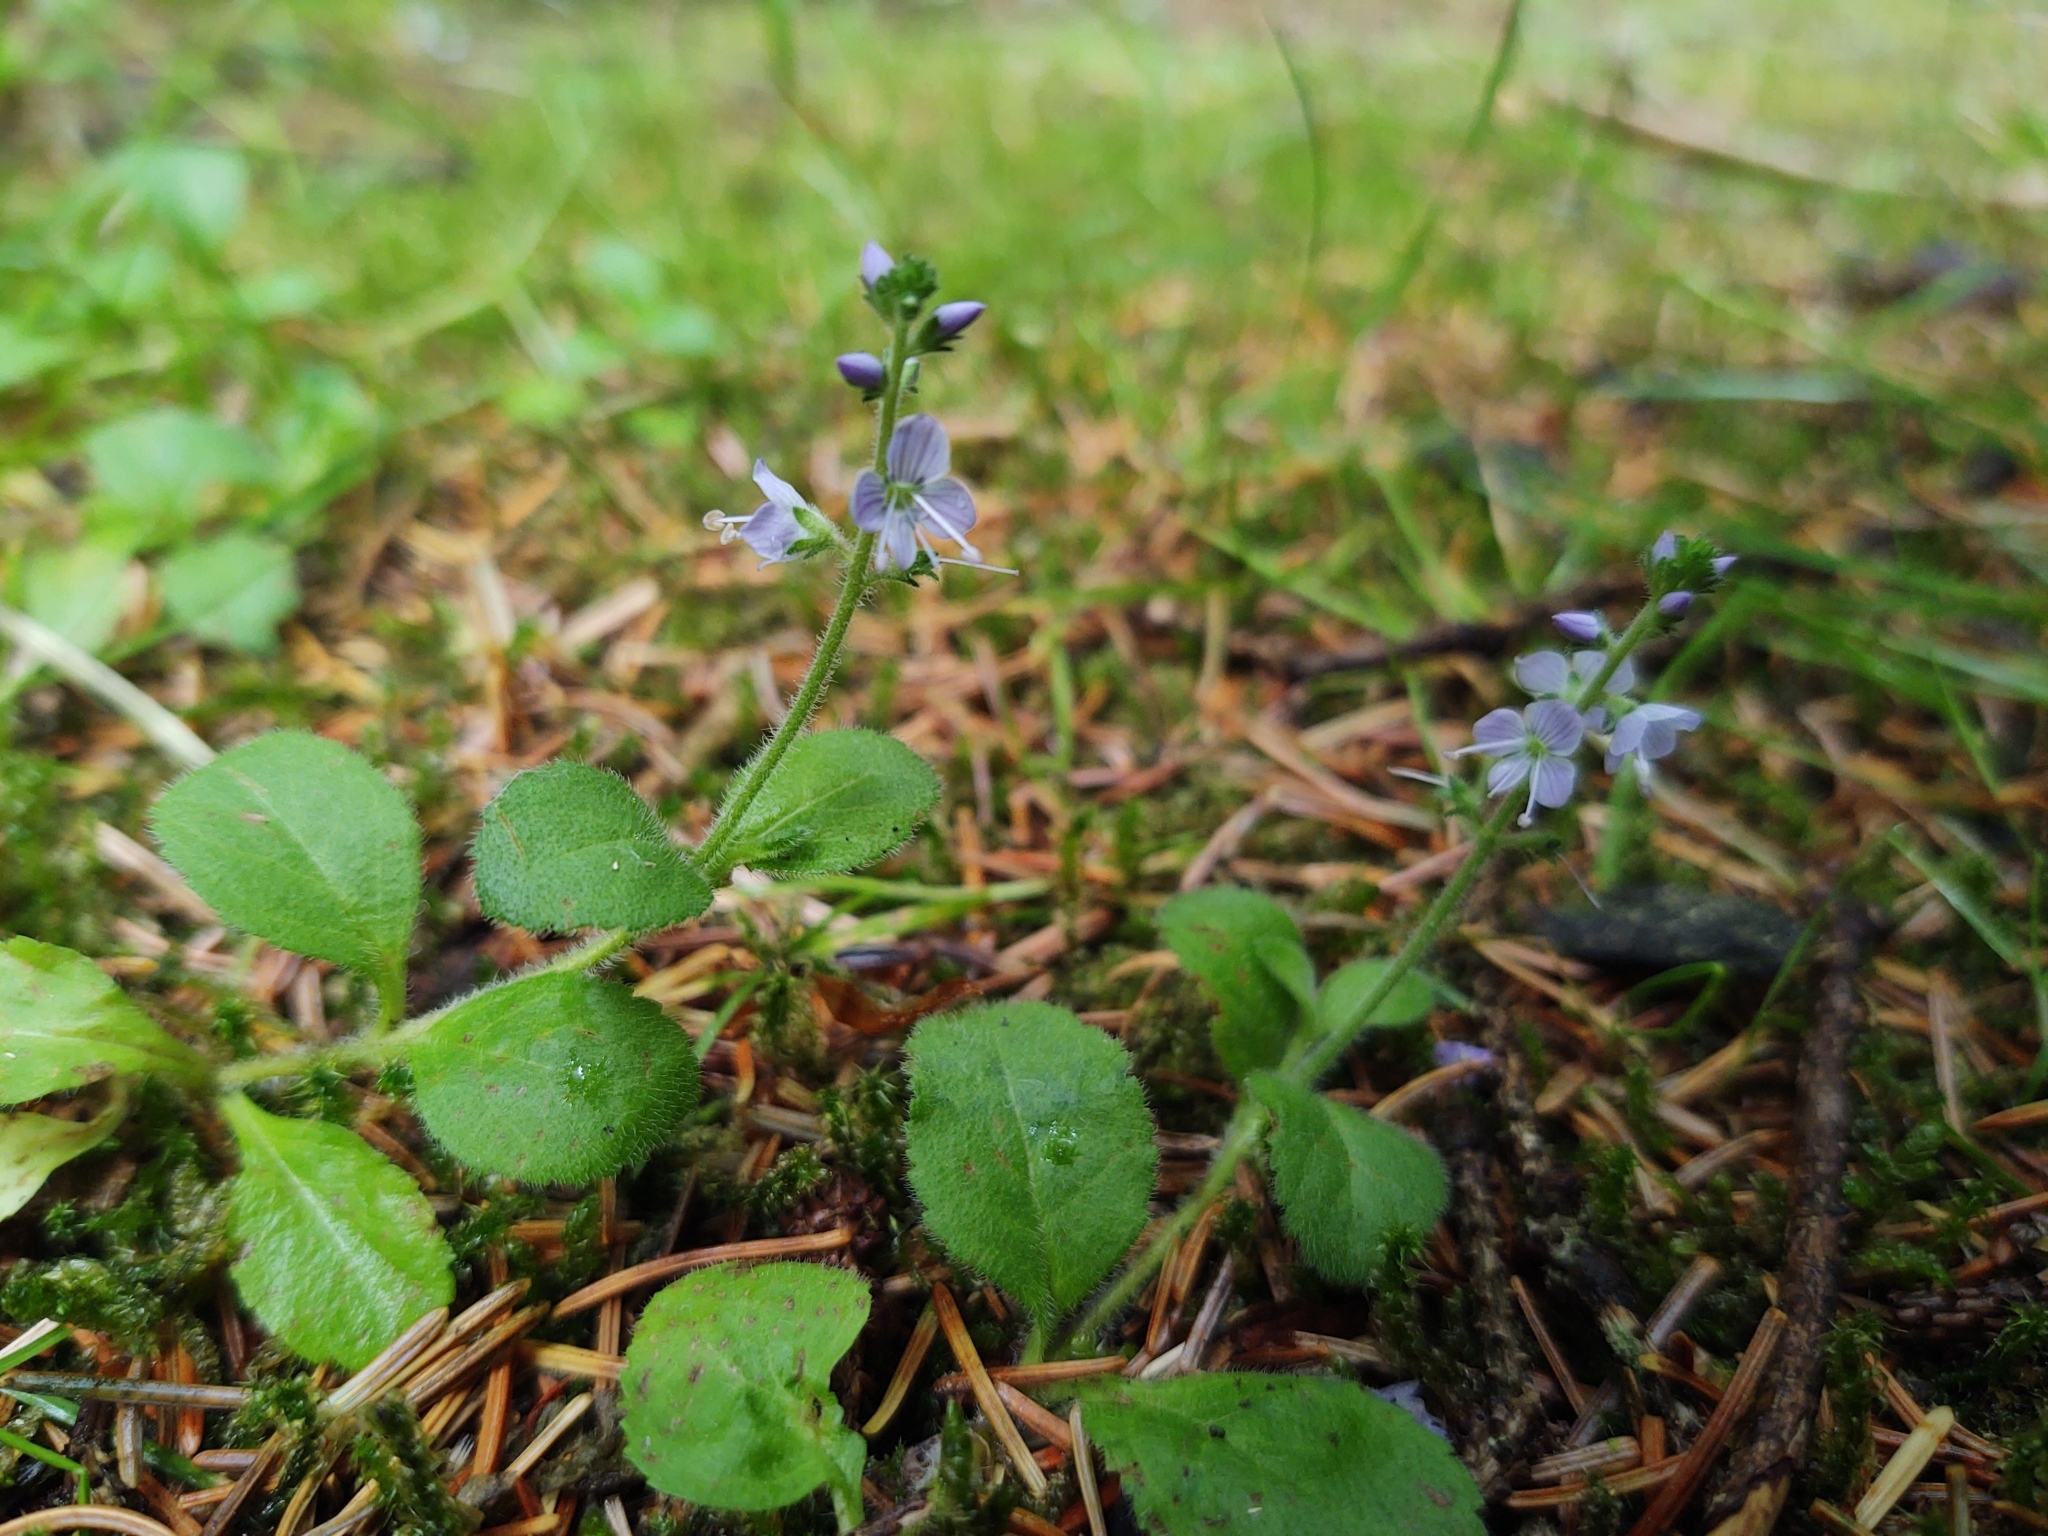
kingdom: Plantae
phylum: Tracheophyta
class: Magnoliopsida
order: Lamiales
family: Plantaginaceae
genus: Veronica
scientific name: Veronica officinalis
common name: Common speedwell
